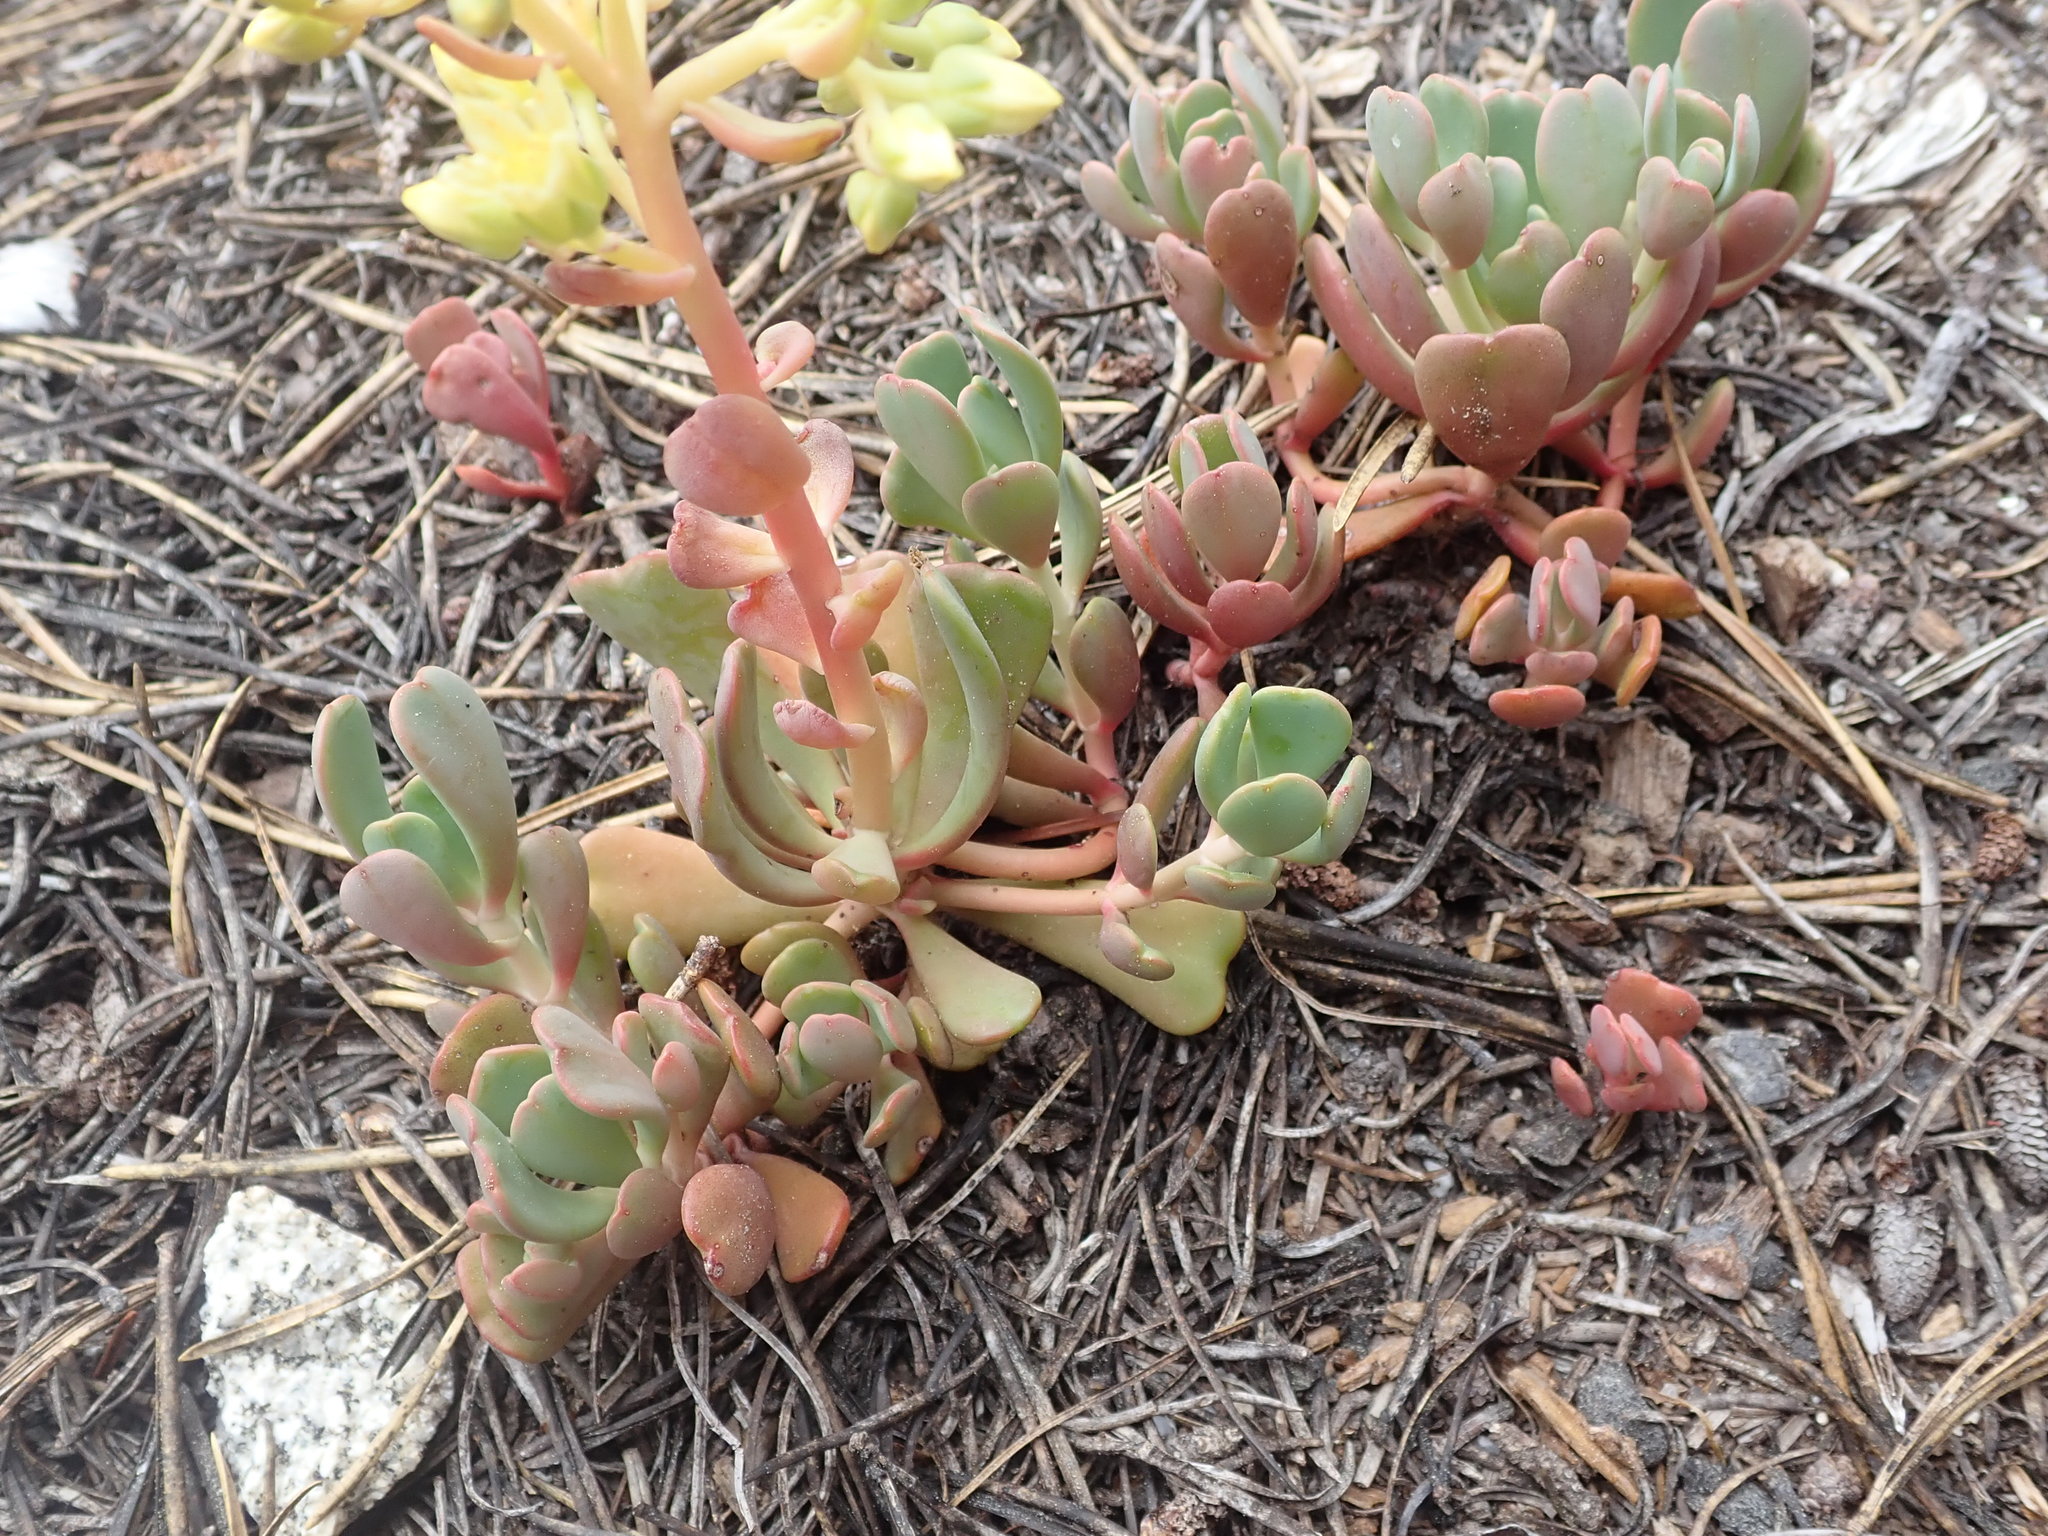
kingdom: Plantae
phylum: Tracheophyta
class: Magnoliopsida
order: Saxifragales
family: Crassulaceae
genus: Sedum
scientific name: Sedum oregonense
